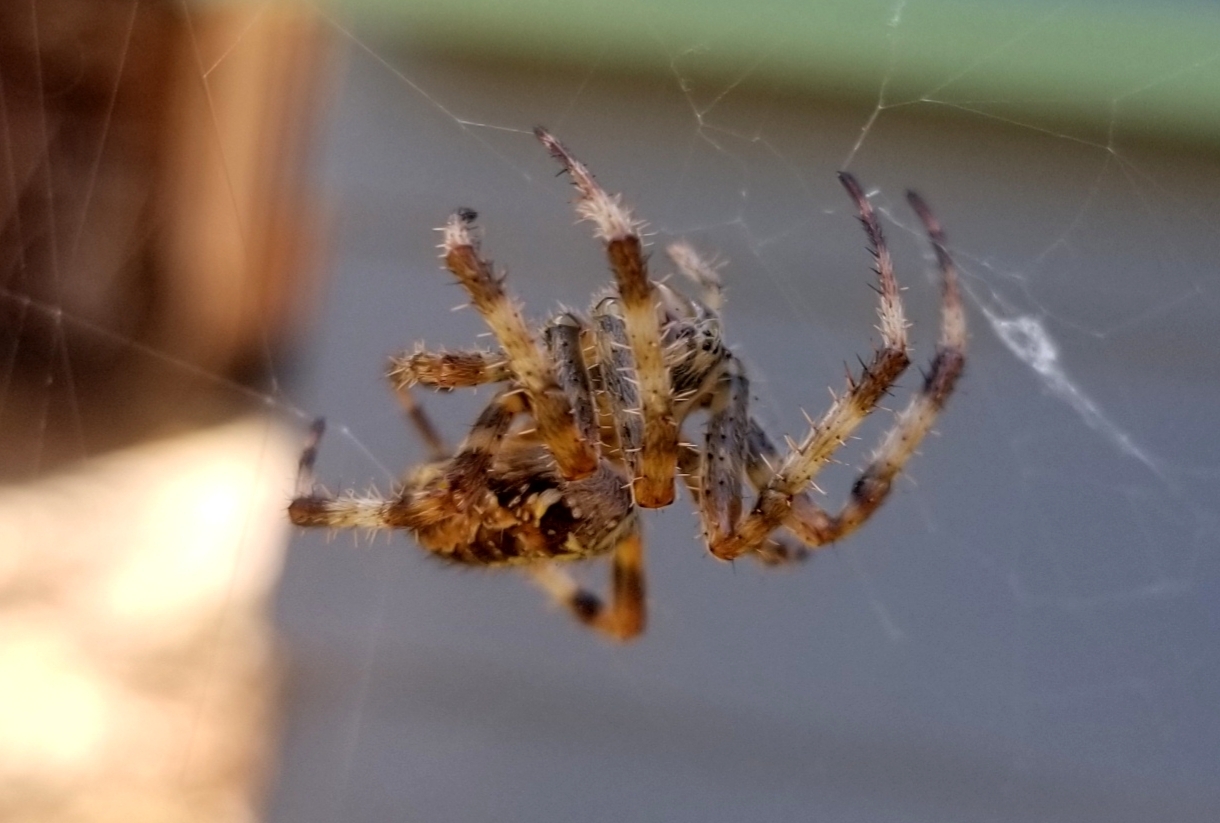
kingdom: Animalia
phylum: Arthropoda
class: Arachnida
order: Araneae
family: Araneidae
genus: Araneus
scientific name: Araneus diadematus
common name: Cross orbweaver
